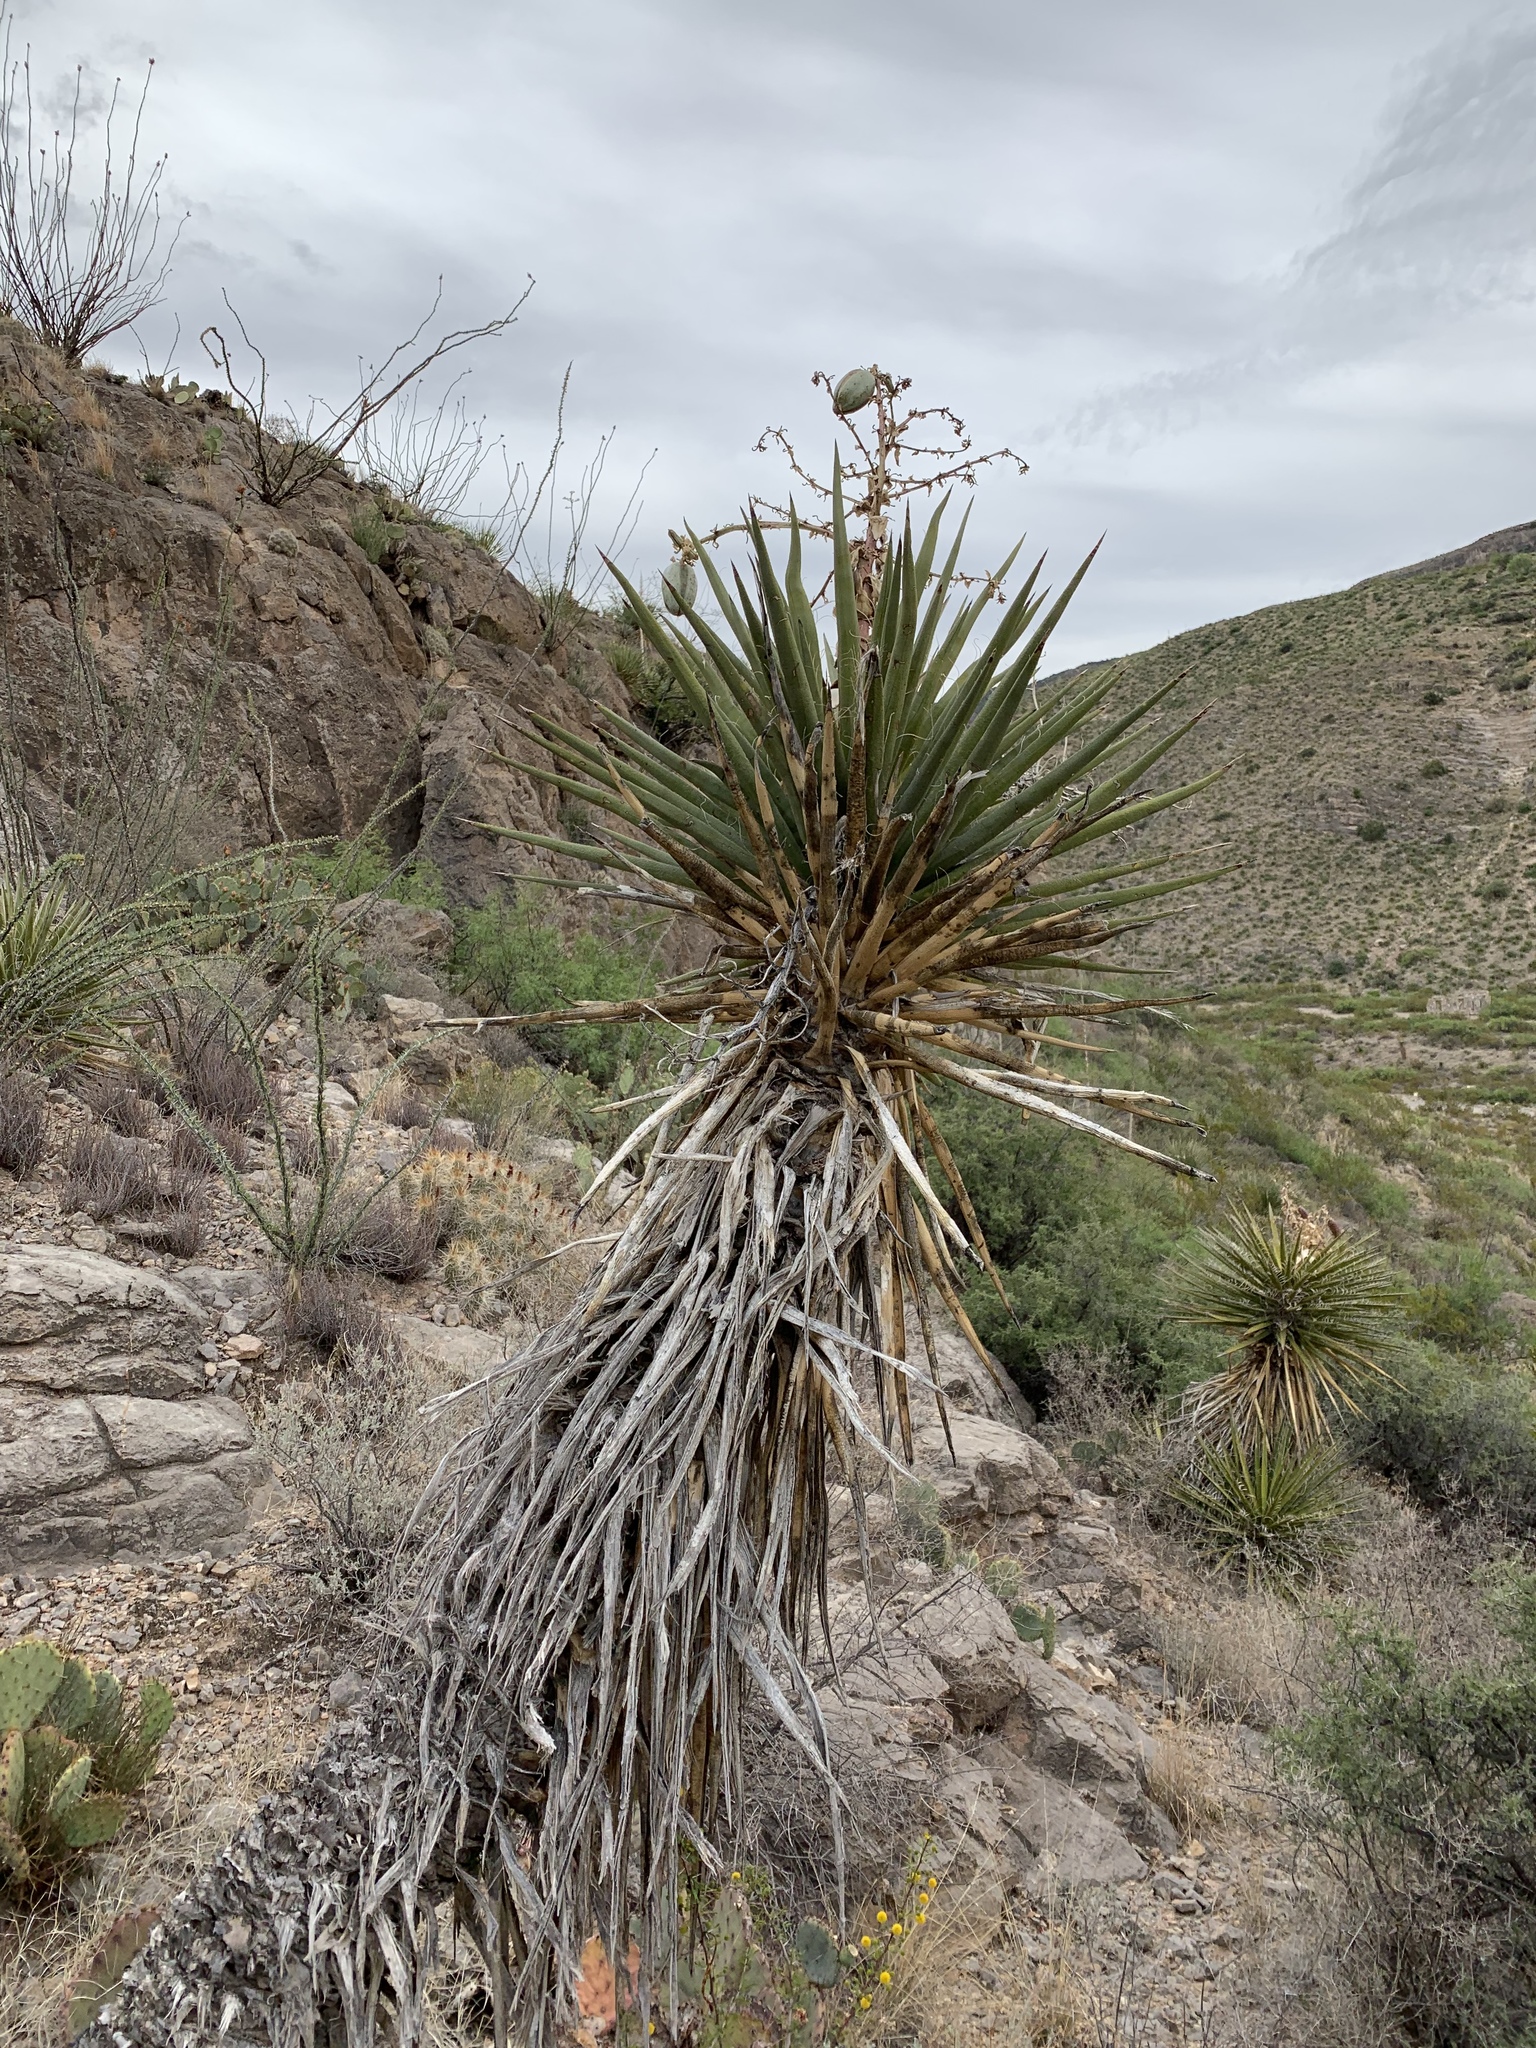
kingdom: Plantae
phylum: Tracheophyta
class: Liliopsida
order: Asparagales
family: Asparagaceae
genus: Yucca
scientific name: Yucca treculiana
